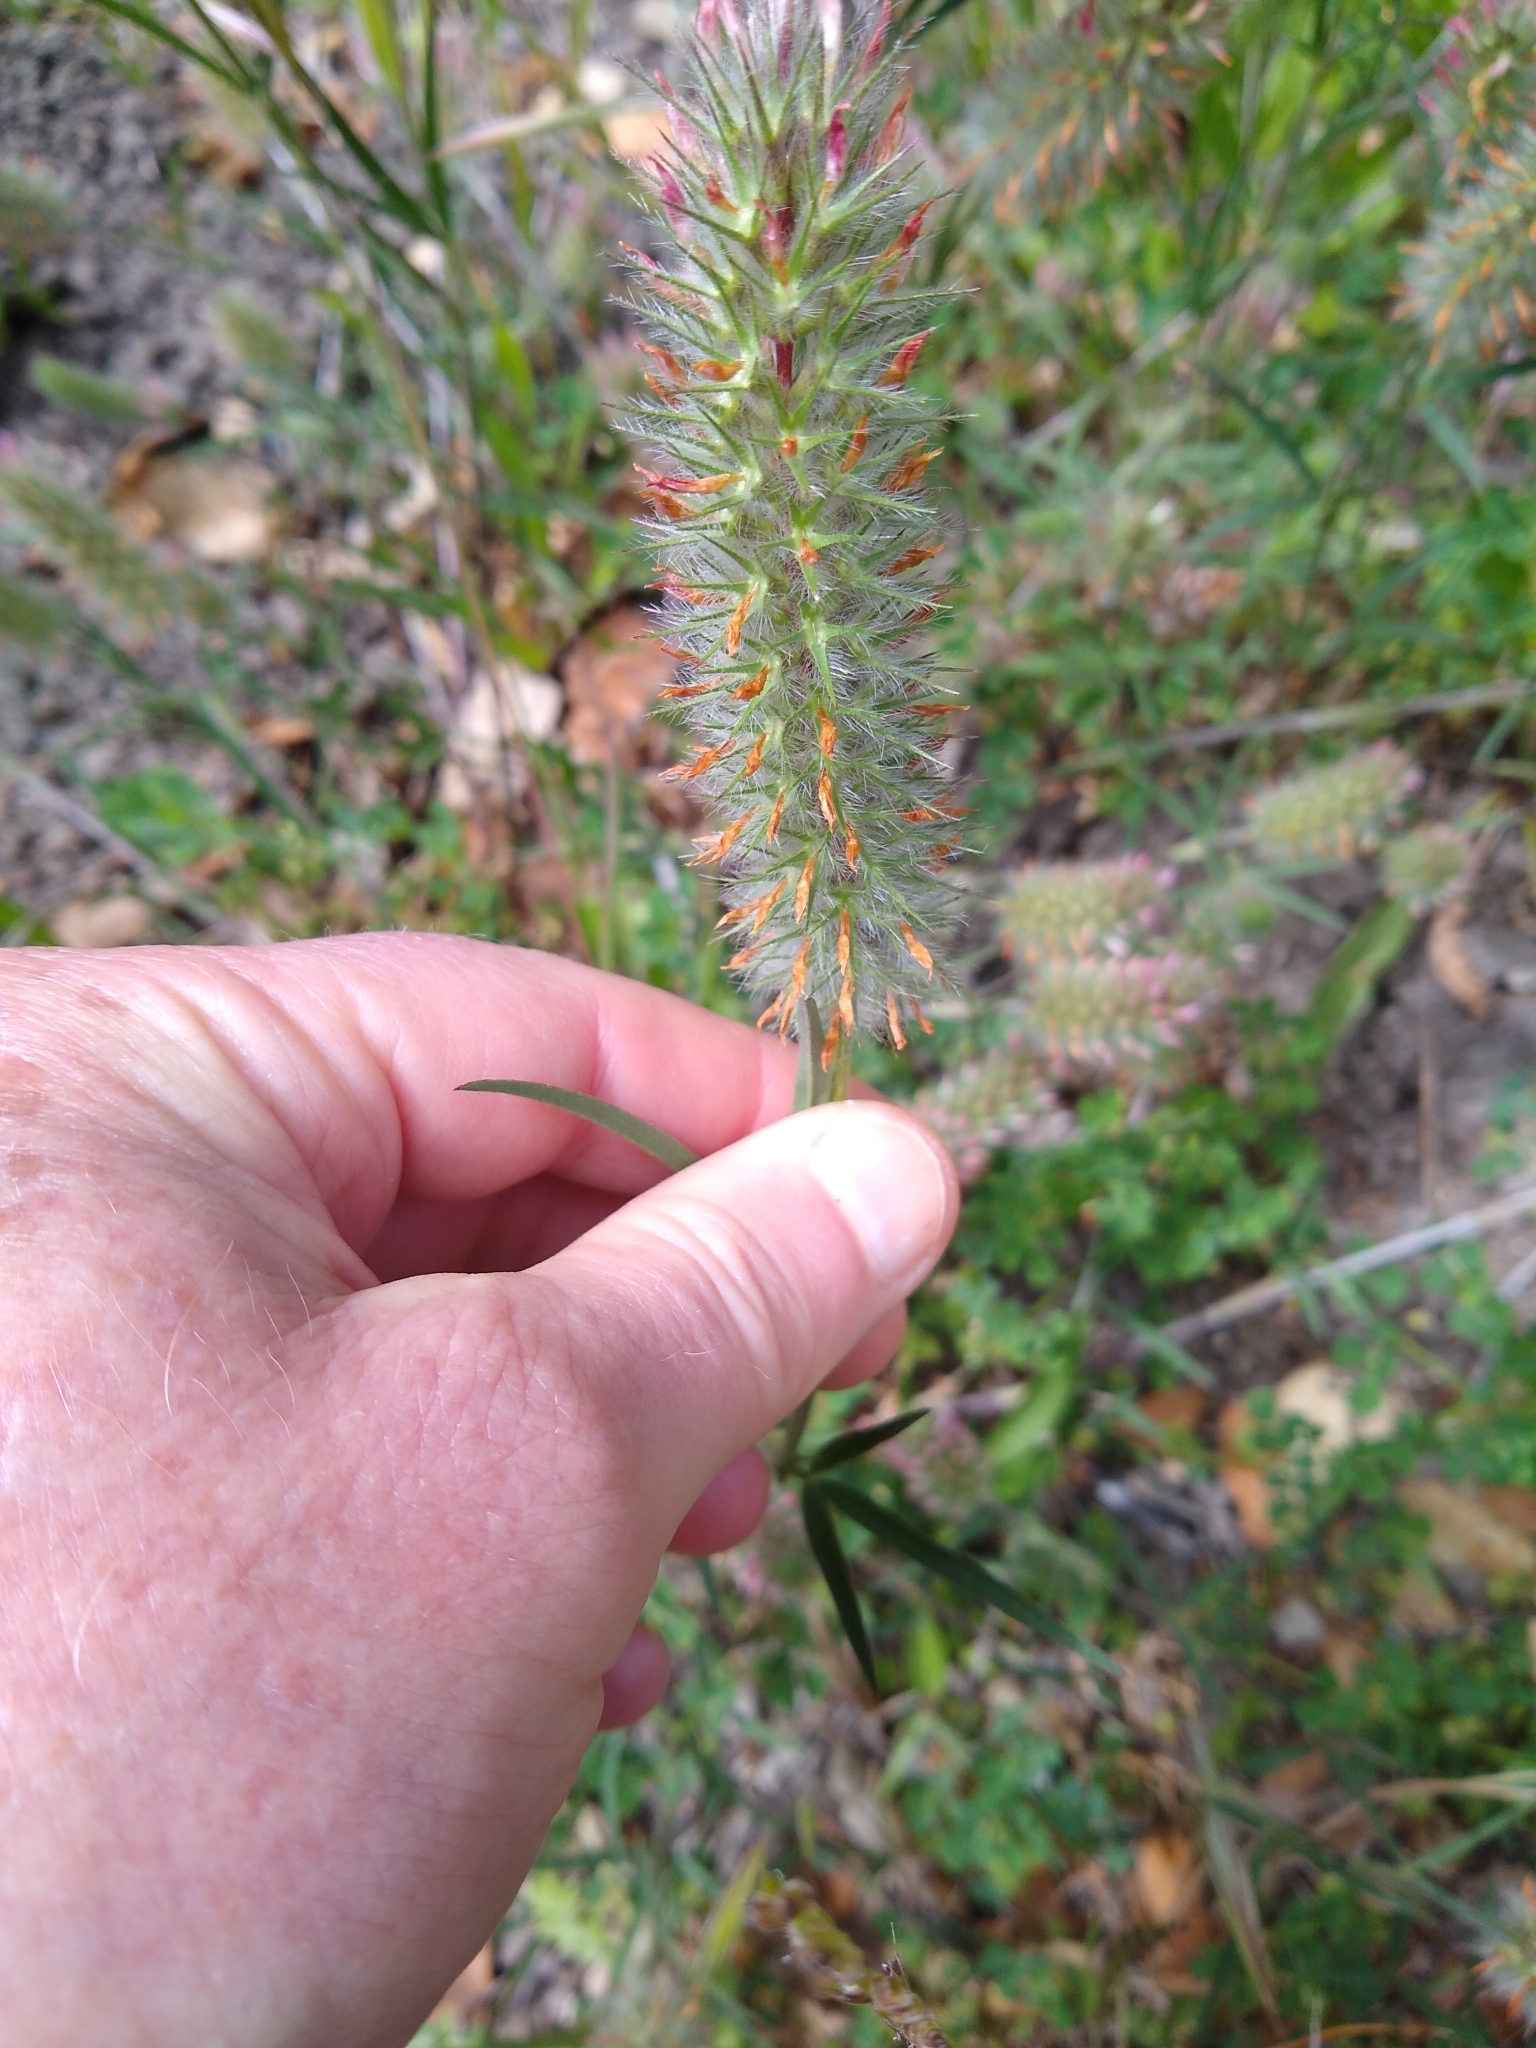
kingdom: Plantae
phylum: Tracheophyta
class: Magnoliopsida
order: Fabales
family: Fabaceae
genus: Trifolium
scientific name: Trifolium angustifolium
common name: Narrow clover
